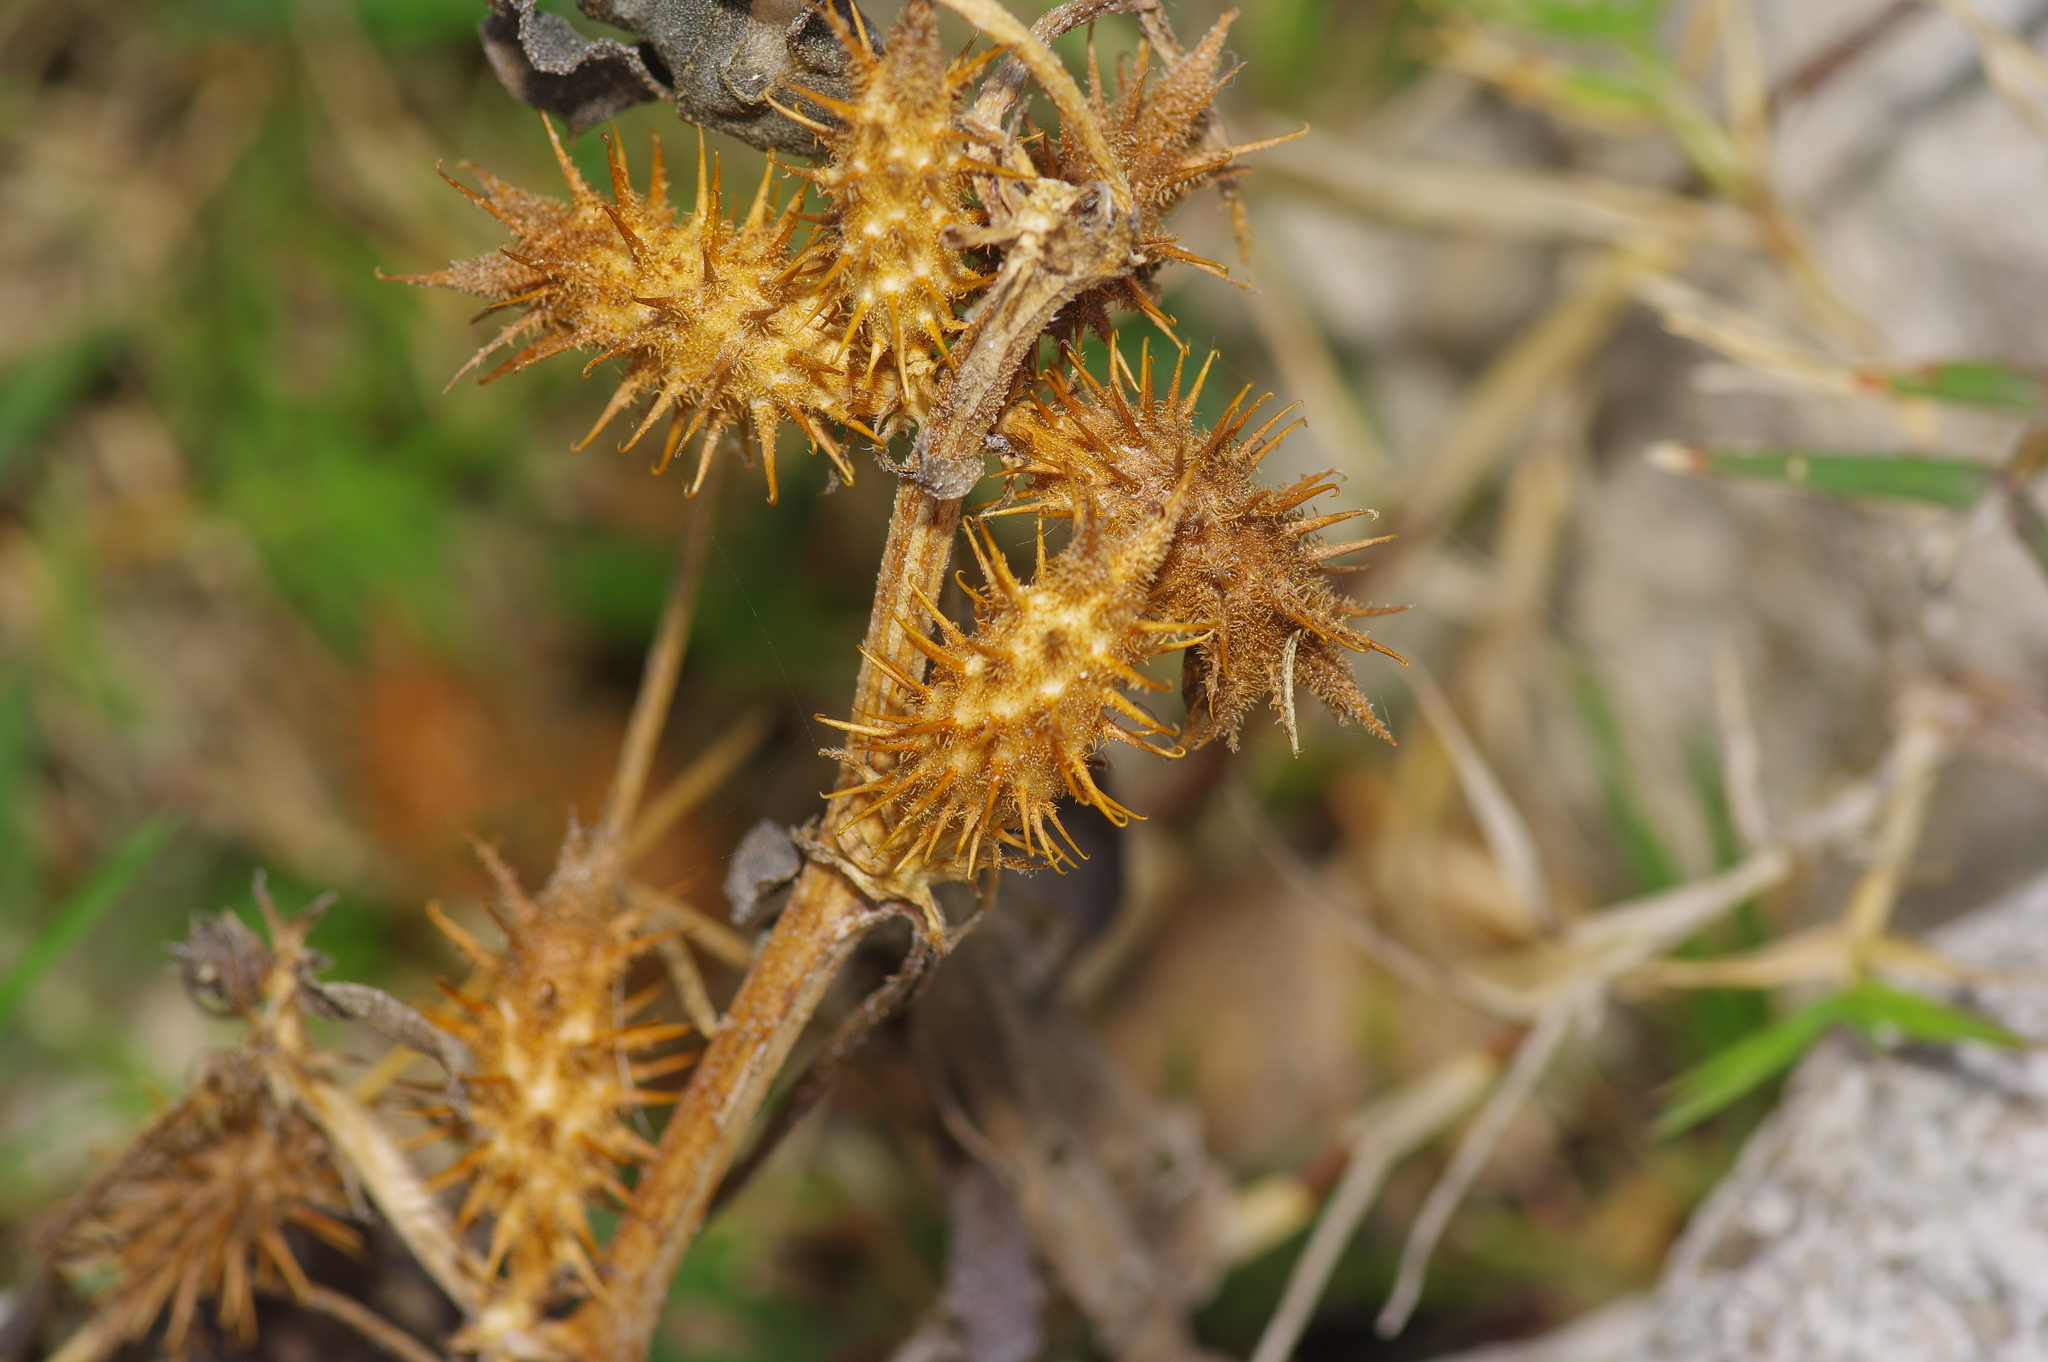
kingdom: Plantae
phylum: Tracheophyta
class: Magnoliopsida
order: Asterales
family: Asteraceae
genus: Xanthium
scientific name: Xanthium strumarium
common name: Rough cocklebur
